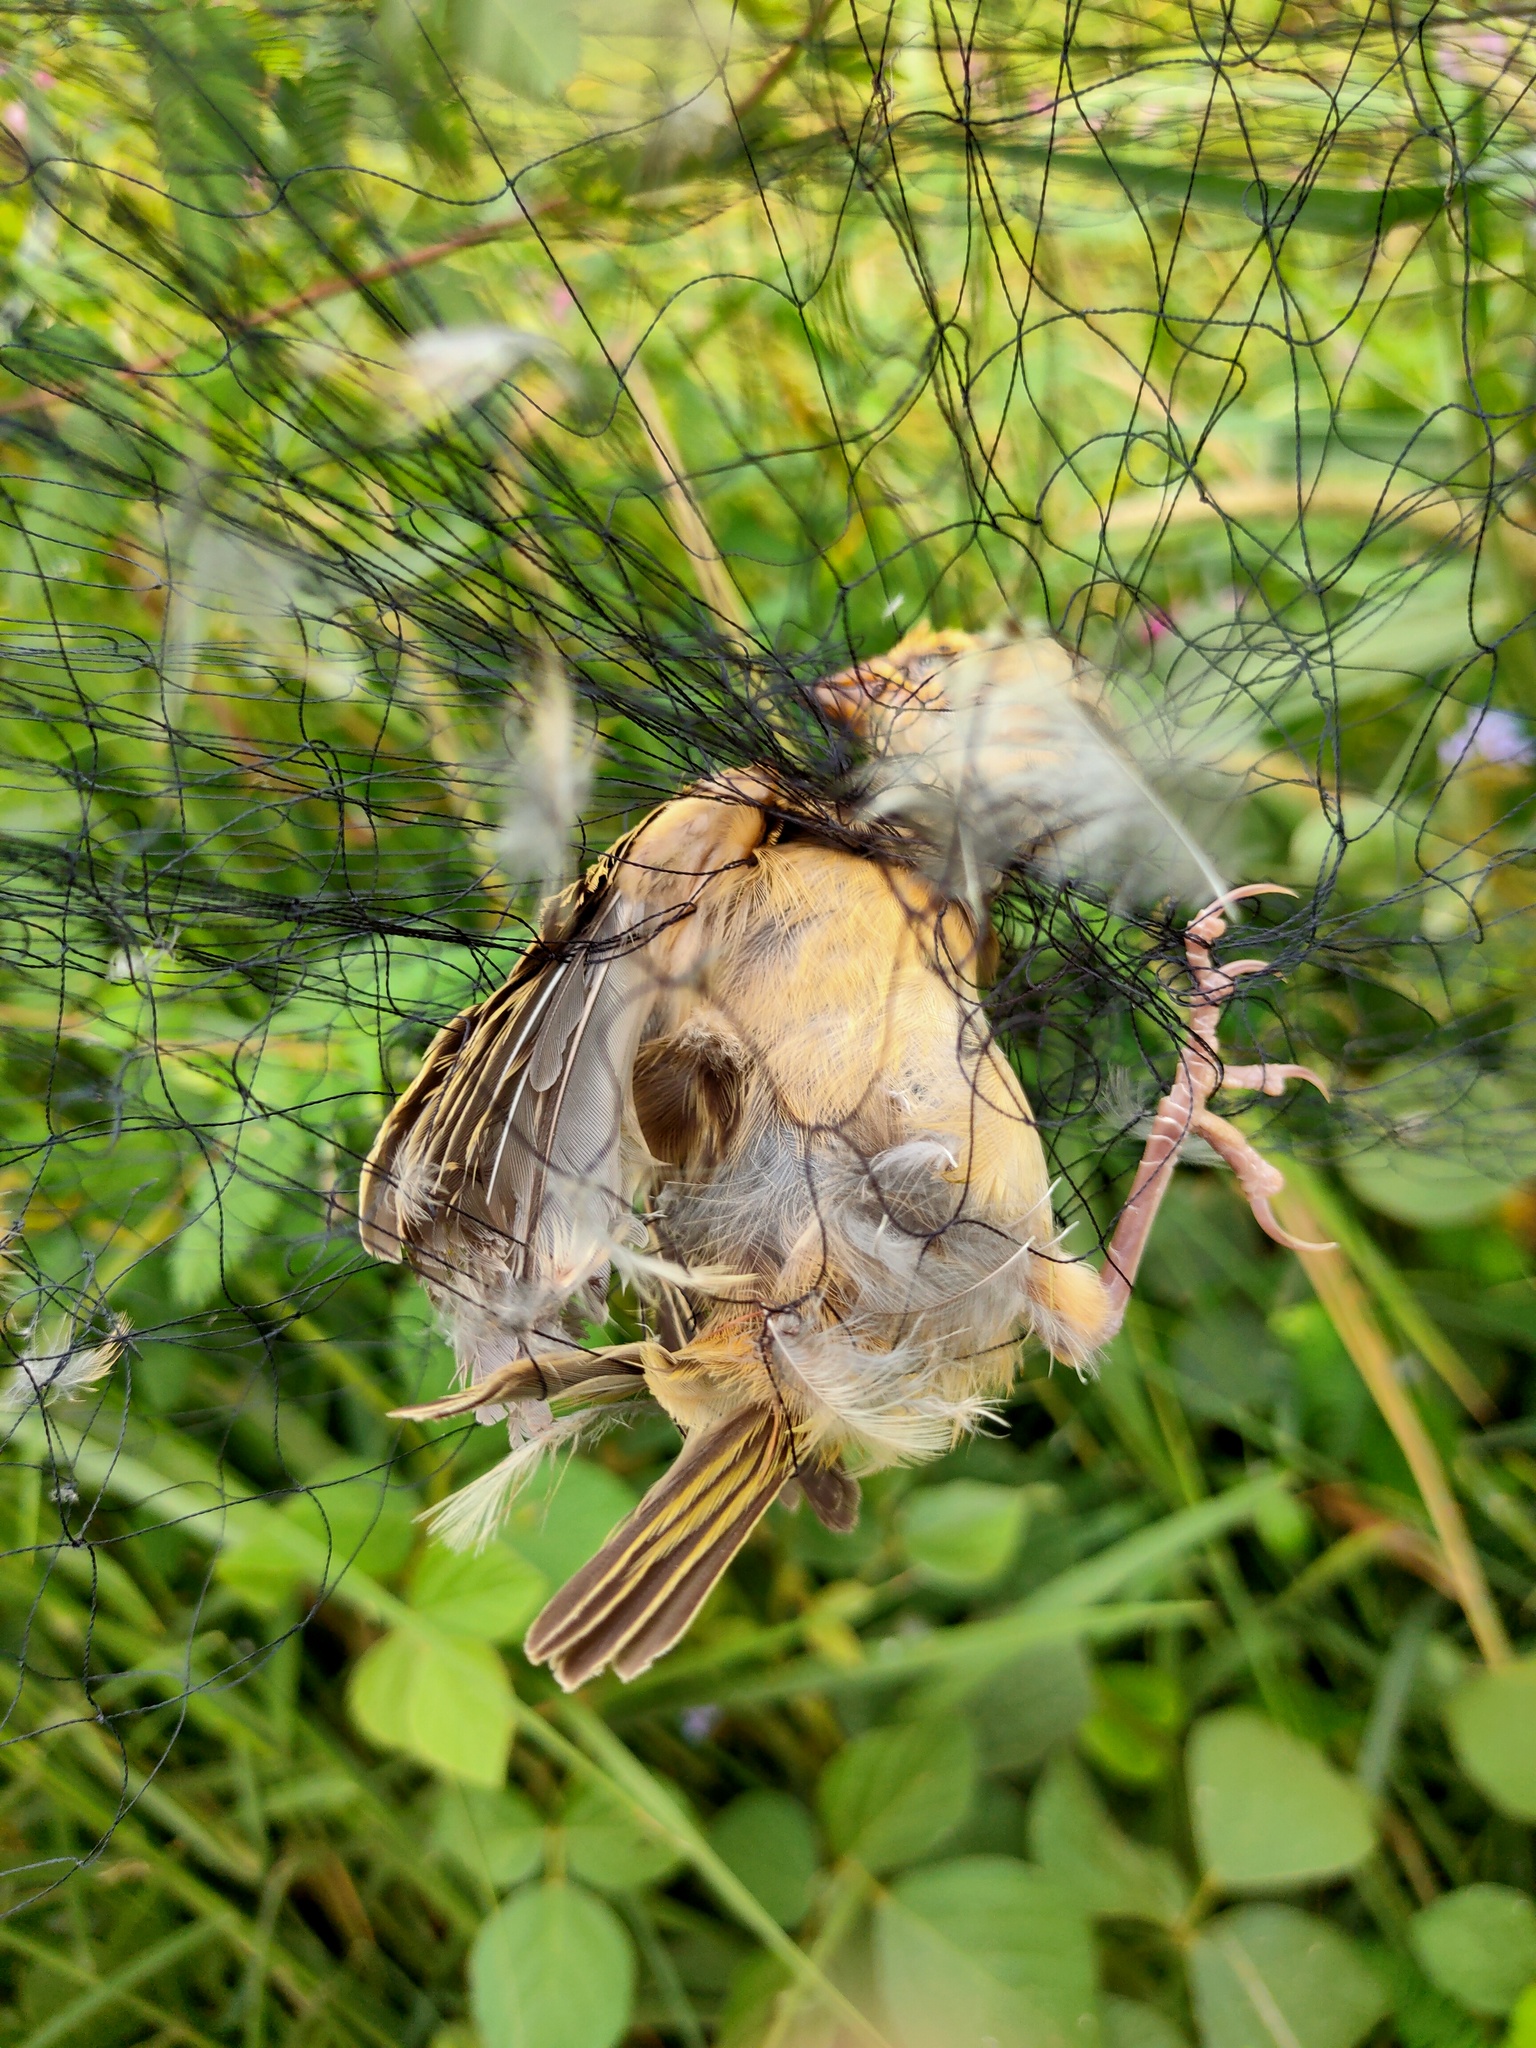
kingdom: Animalia
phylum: Chordata
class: Aves
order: Passeriformes
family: Ploceidae
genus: Ploceus
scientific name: Ploceus philippinus
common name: Baya weaver
